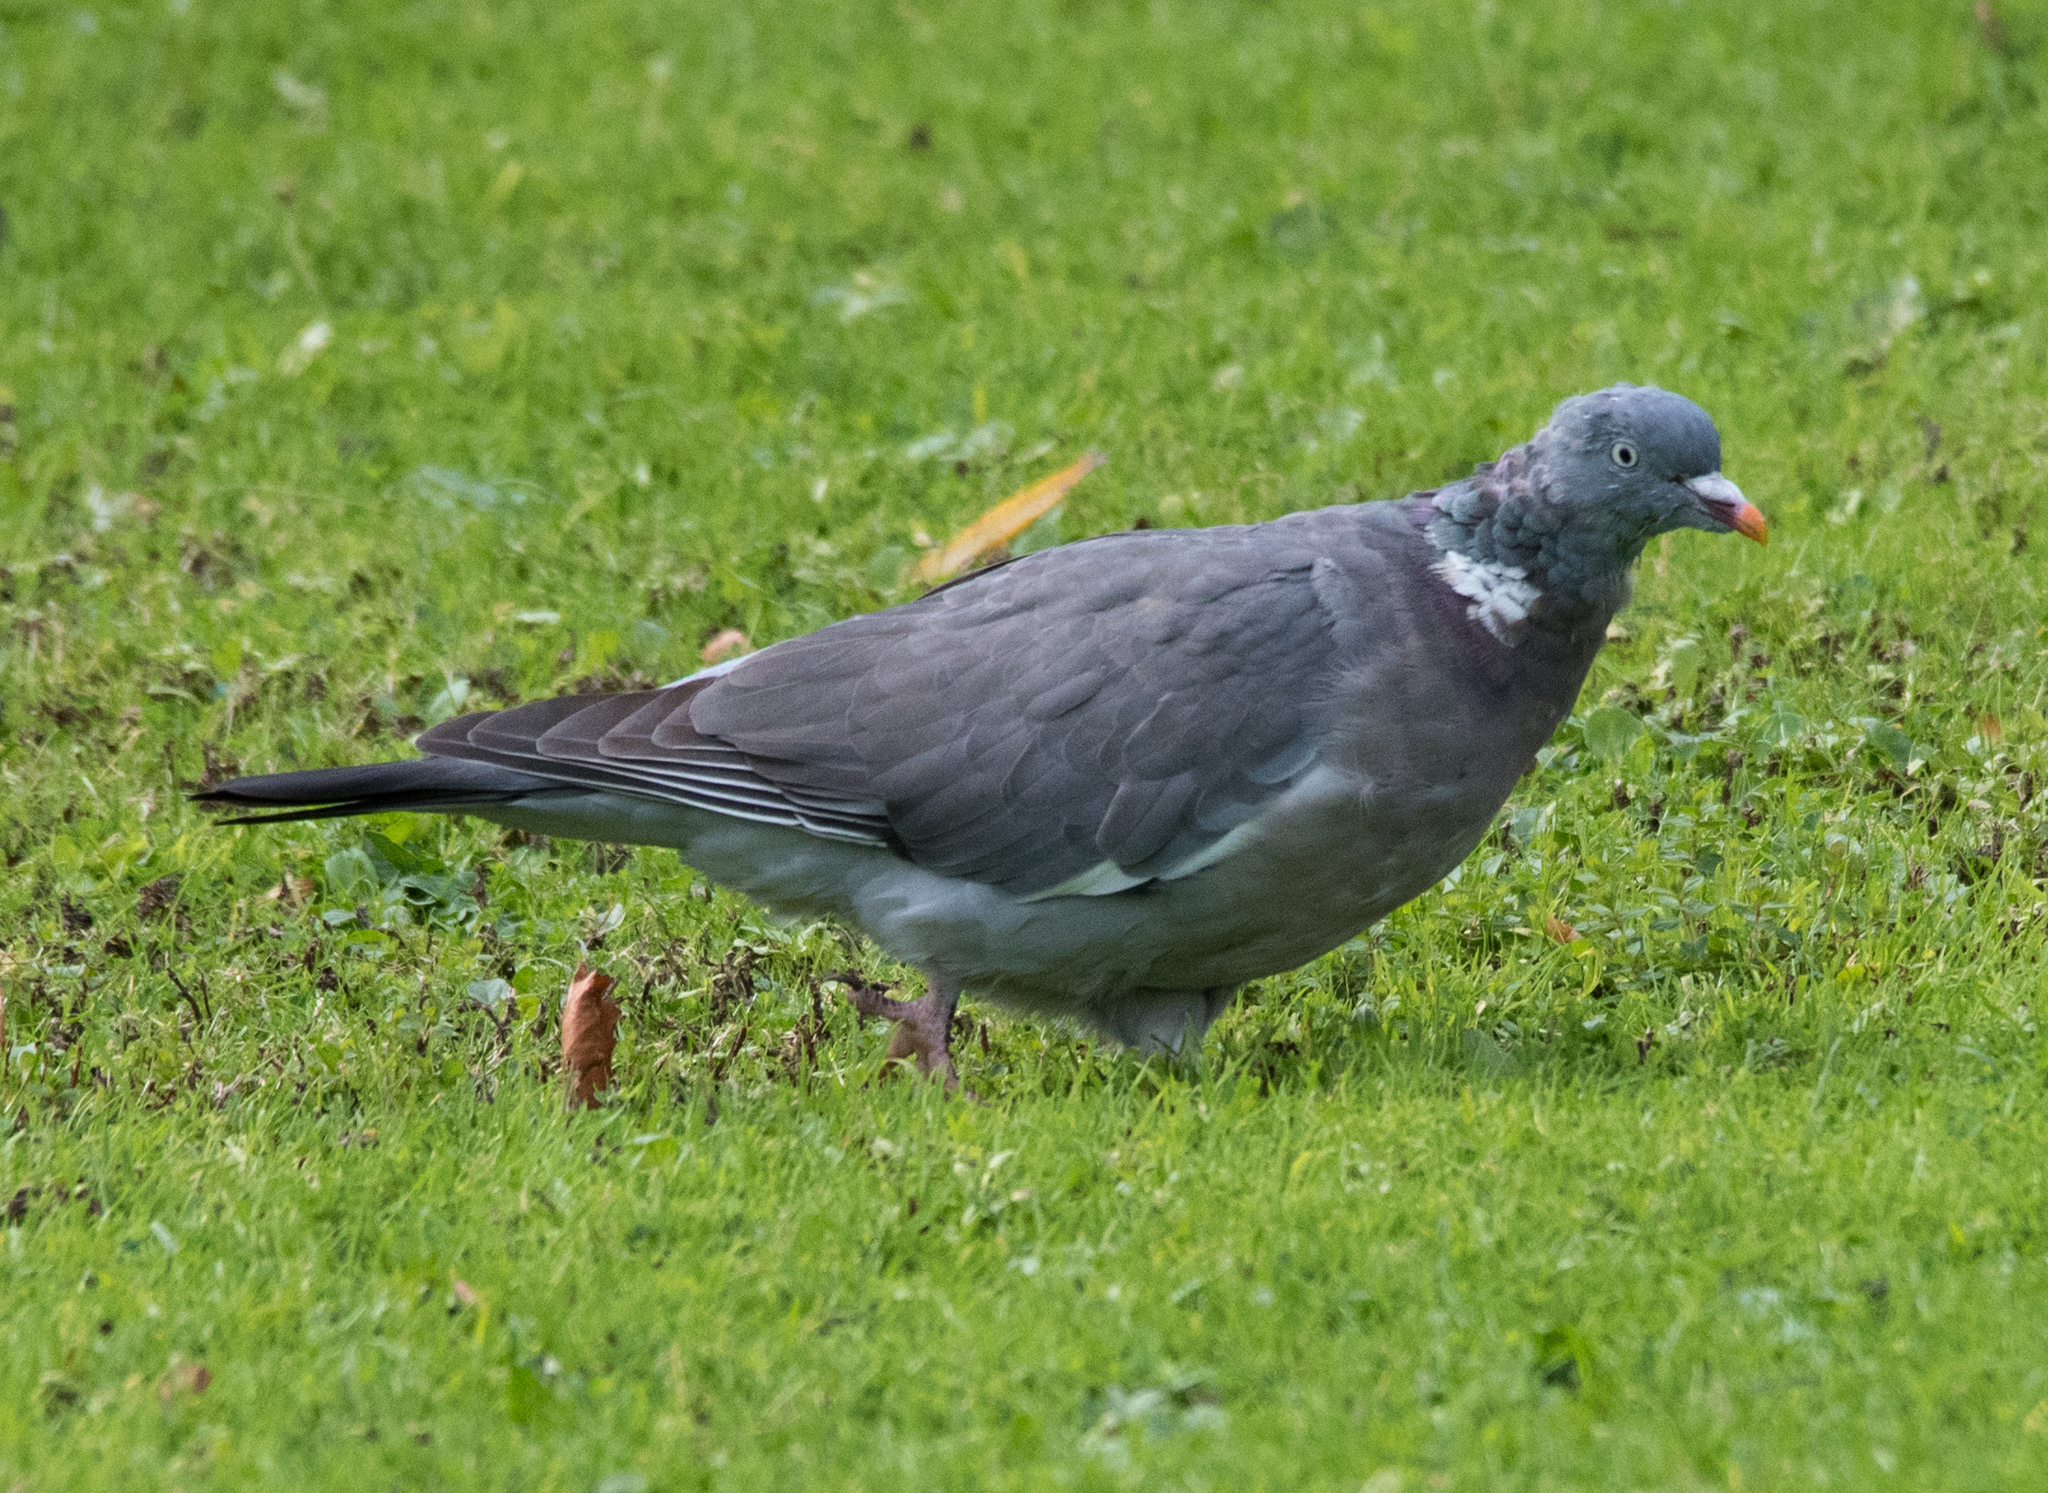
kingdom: Animalia
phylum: Chordata
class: Aves
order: Columbiformes
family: Columbidae
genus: Columba
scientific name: Columba palumbus
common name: Common wood pigeon
